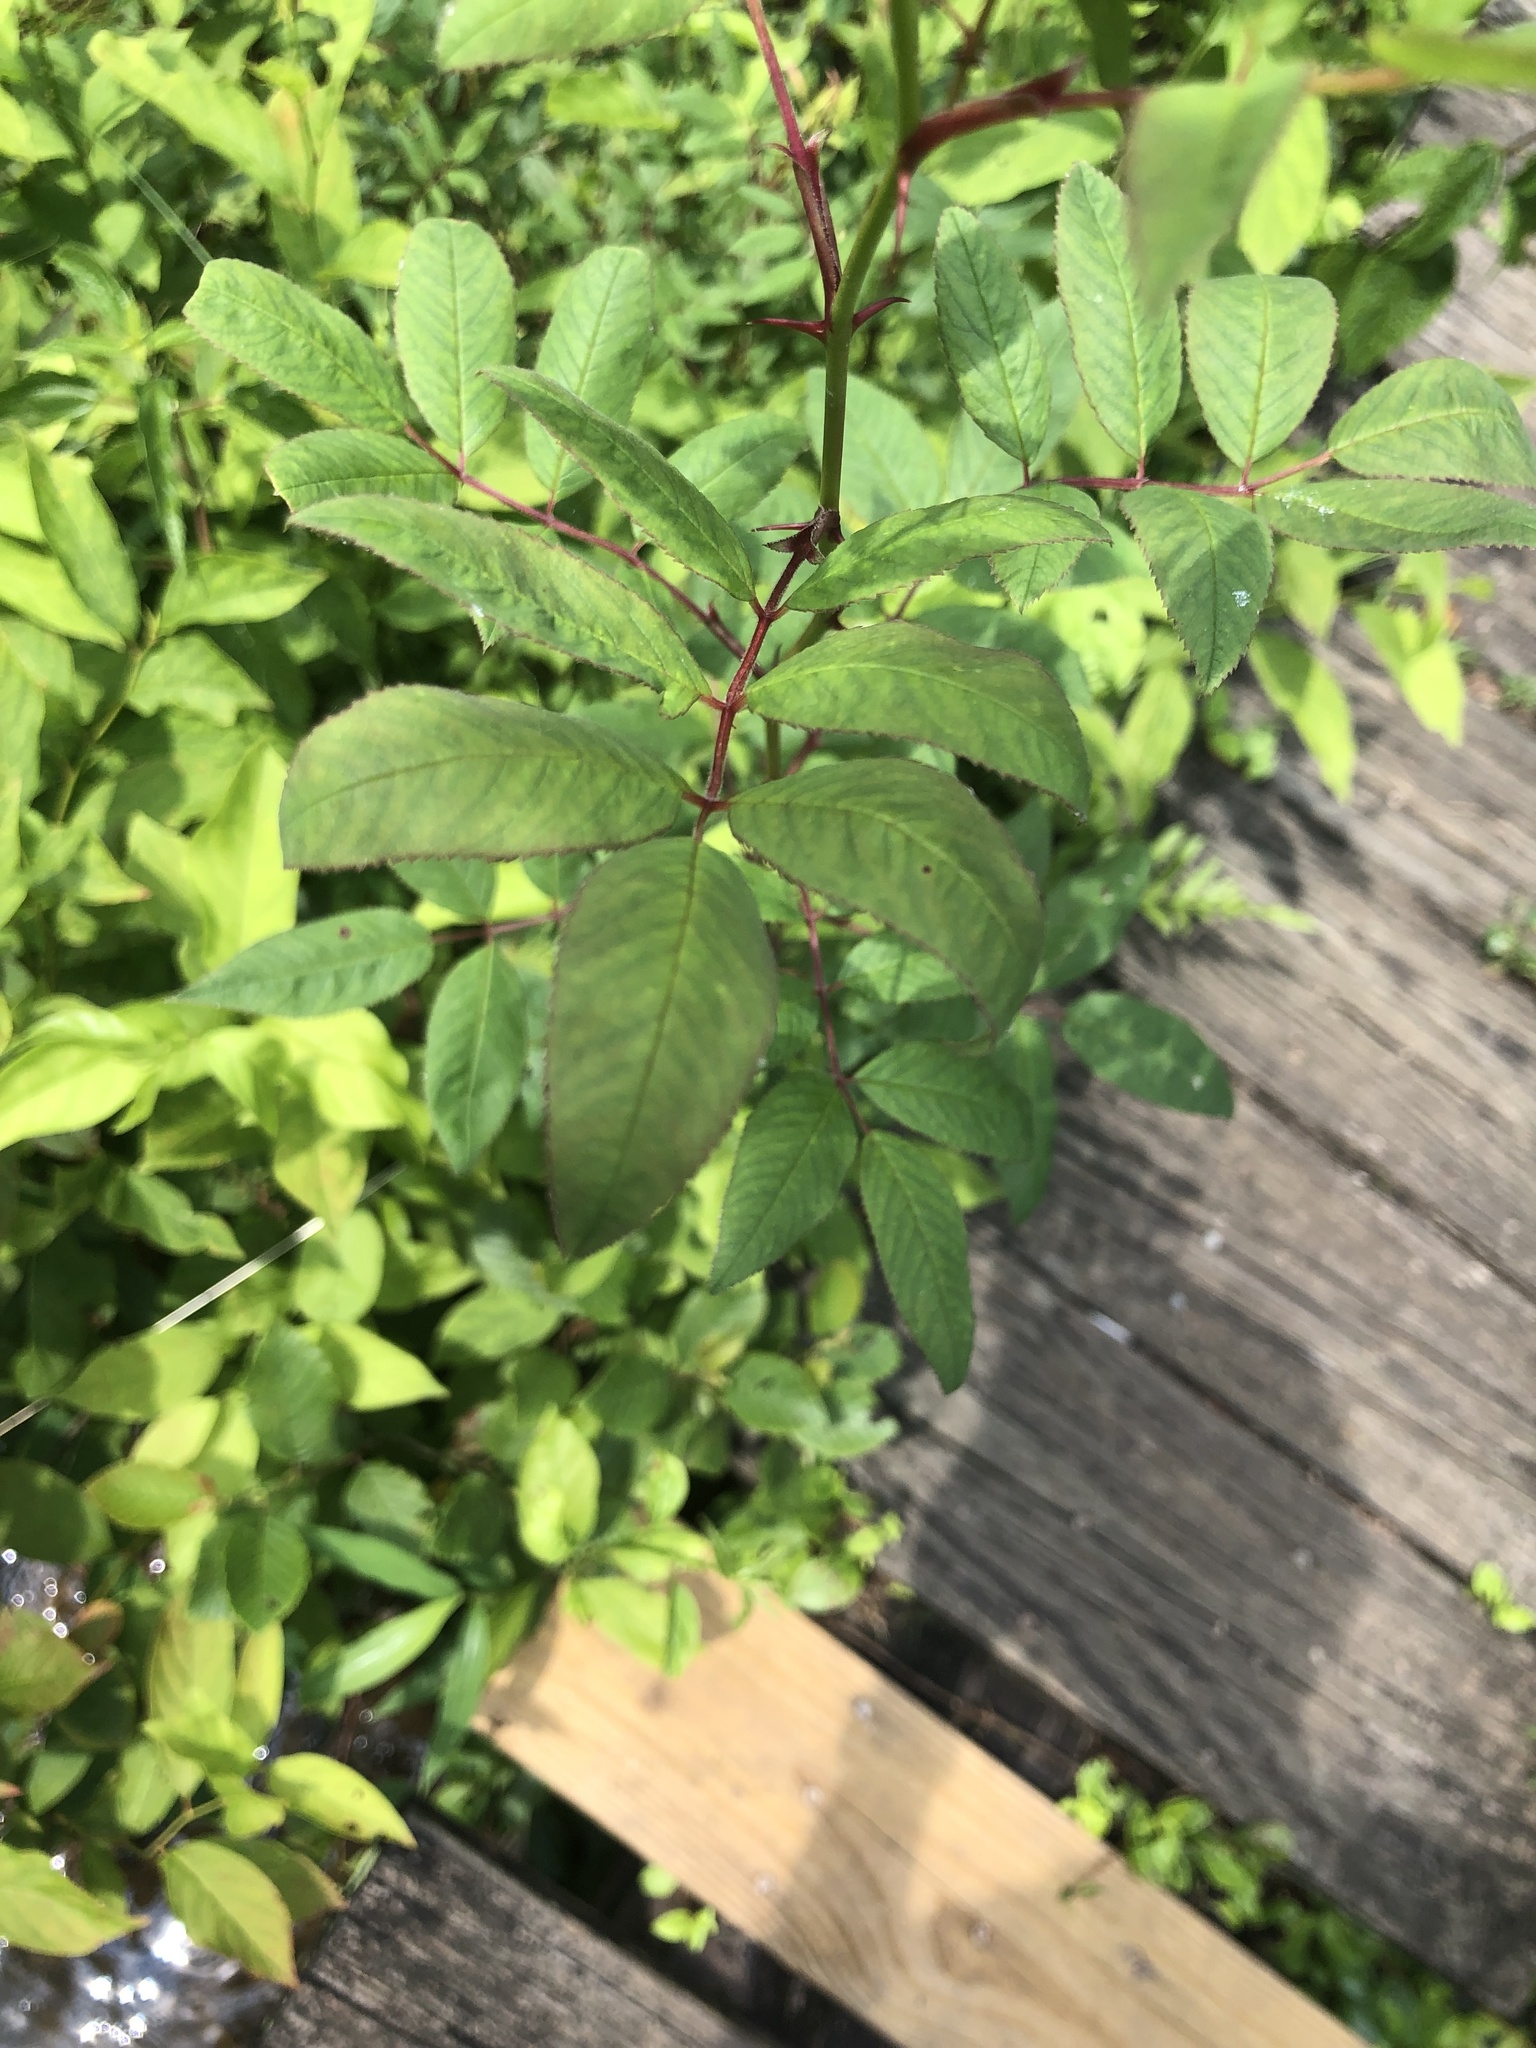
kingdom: Plantae
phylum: Tracheophyta
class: Magnoliopsida
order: Rosales
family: Rosaceae
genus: Rosa
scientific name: Rosa palustris
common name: Swamp rose
